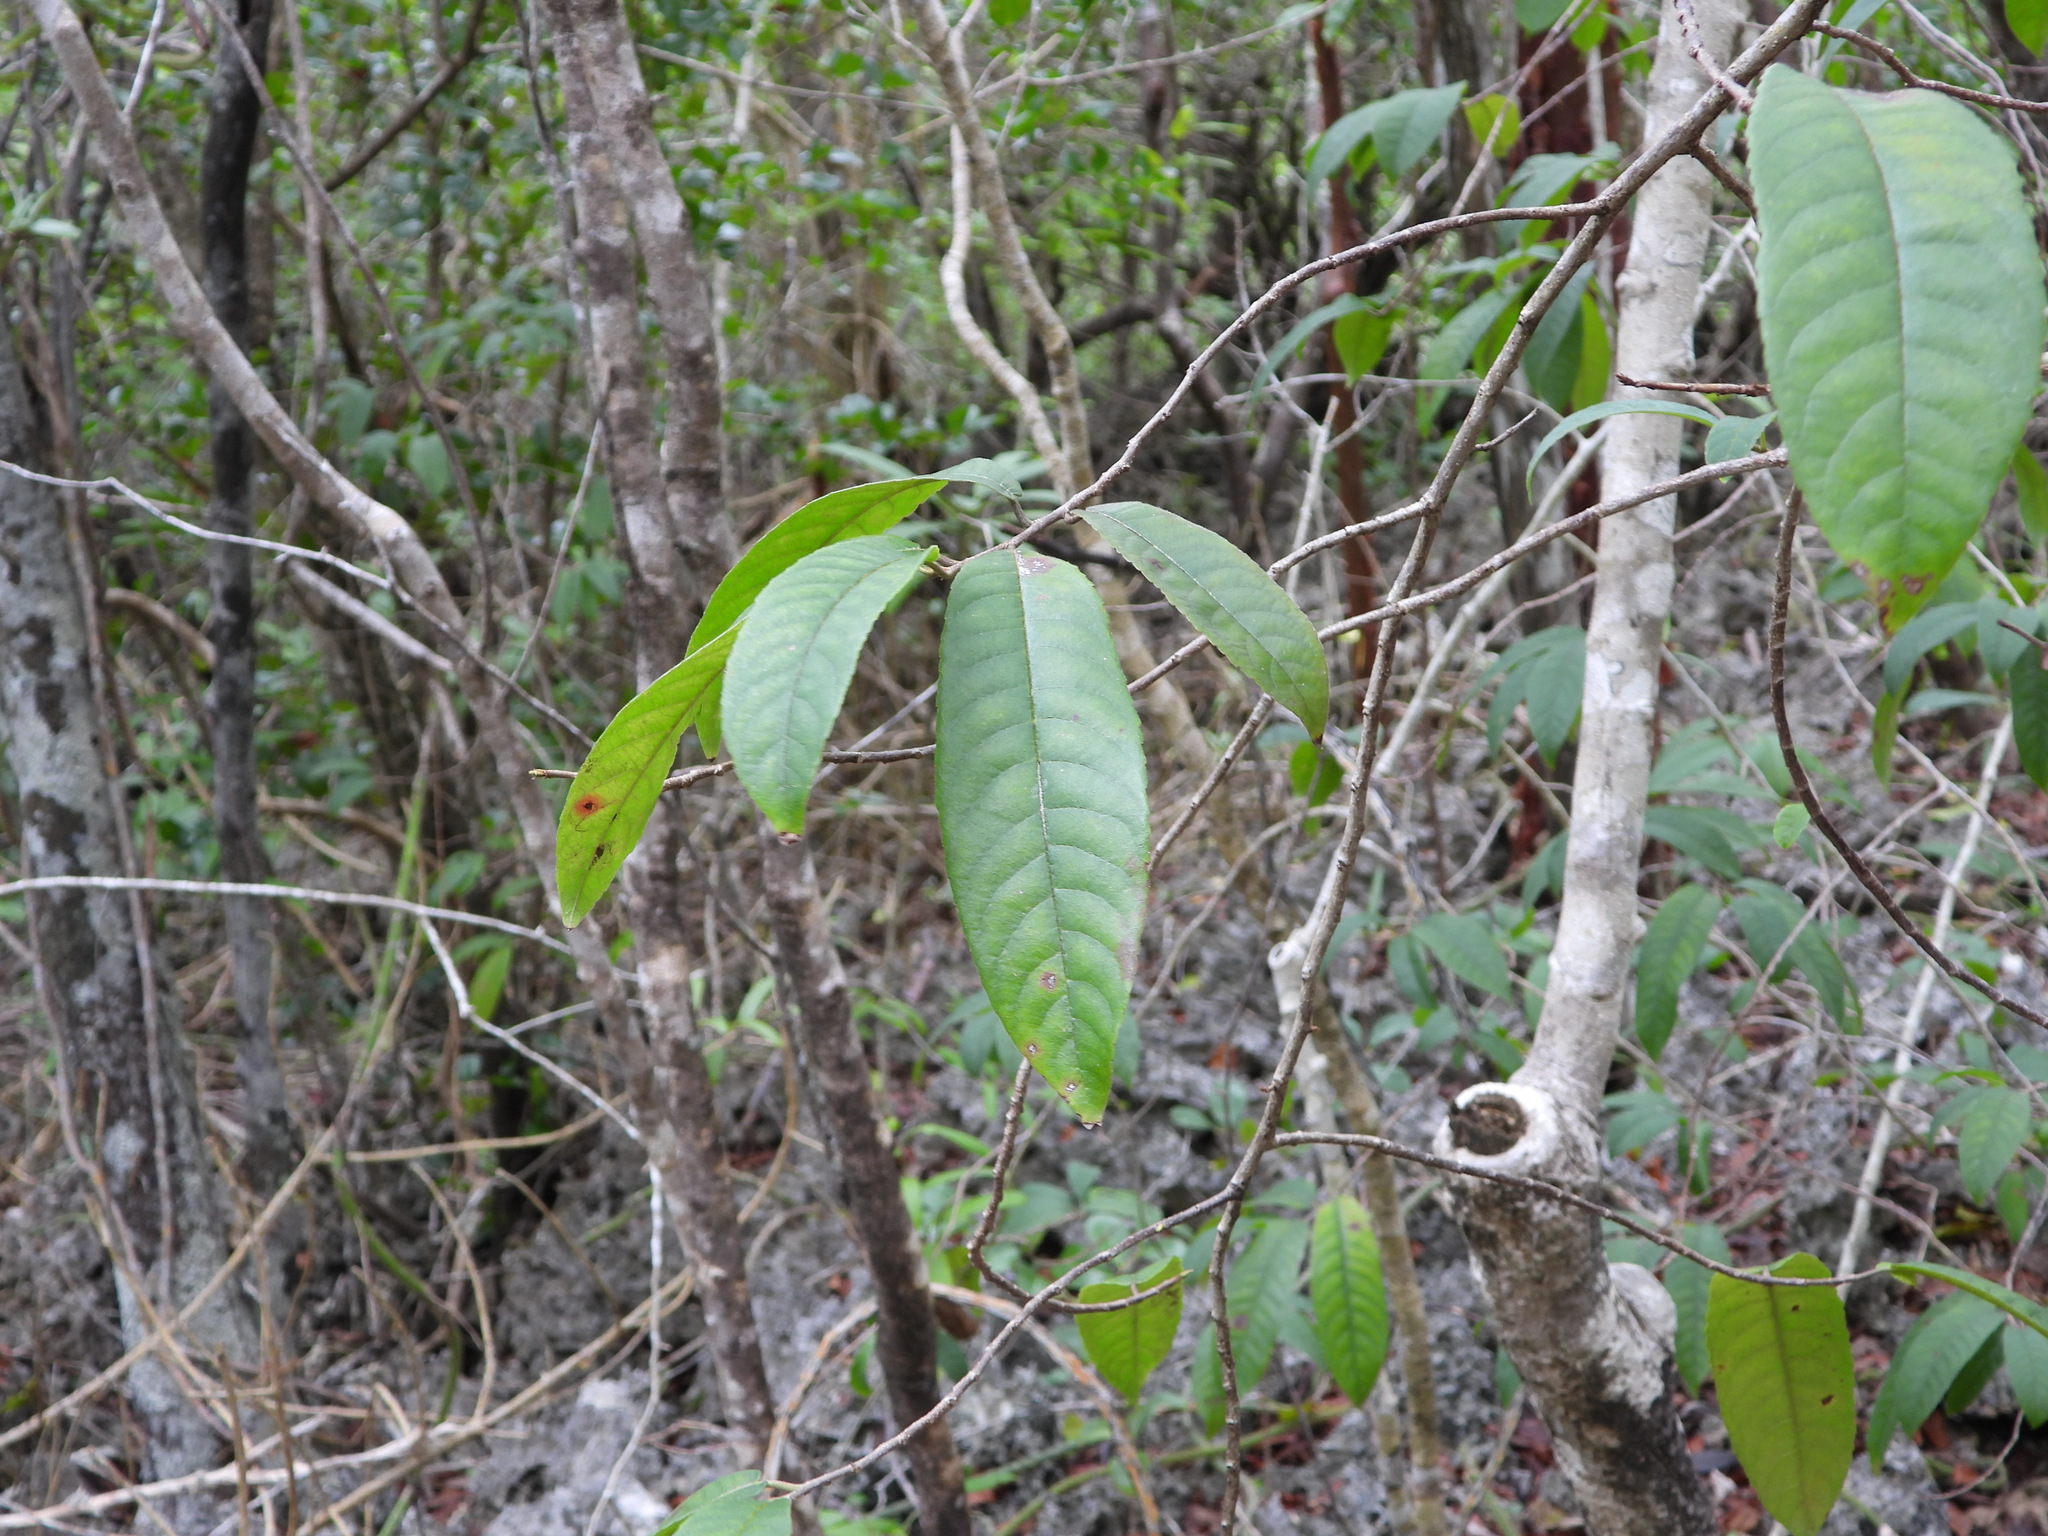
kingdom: Plantae
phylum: Tracheophyta
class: Magnoliopsida
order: Malpighiales
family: Salicaceae
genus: Casearia
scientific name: Casearia icosandra
